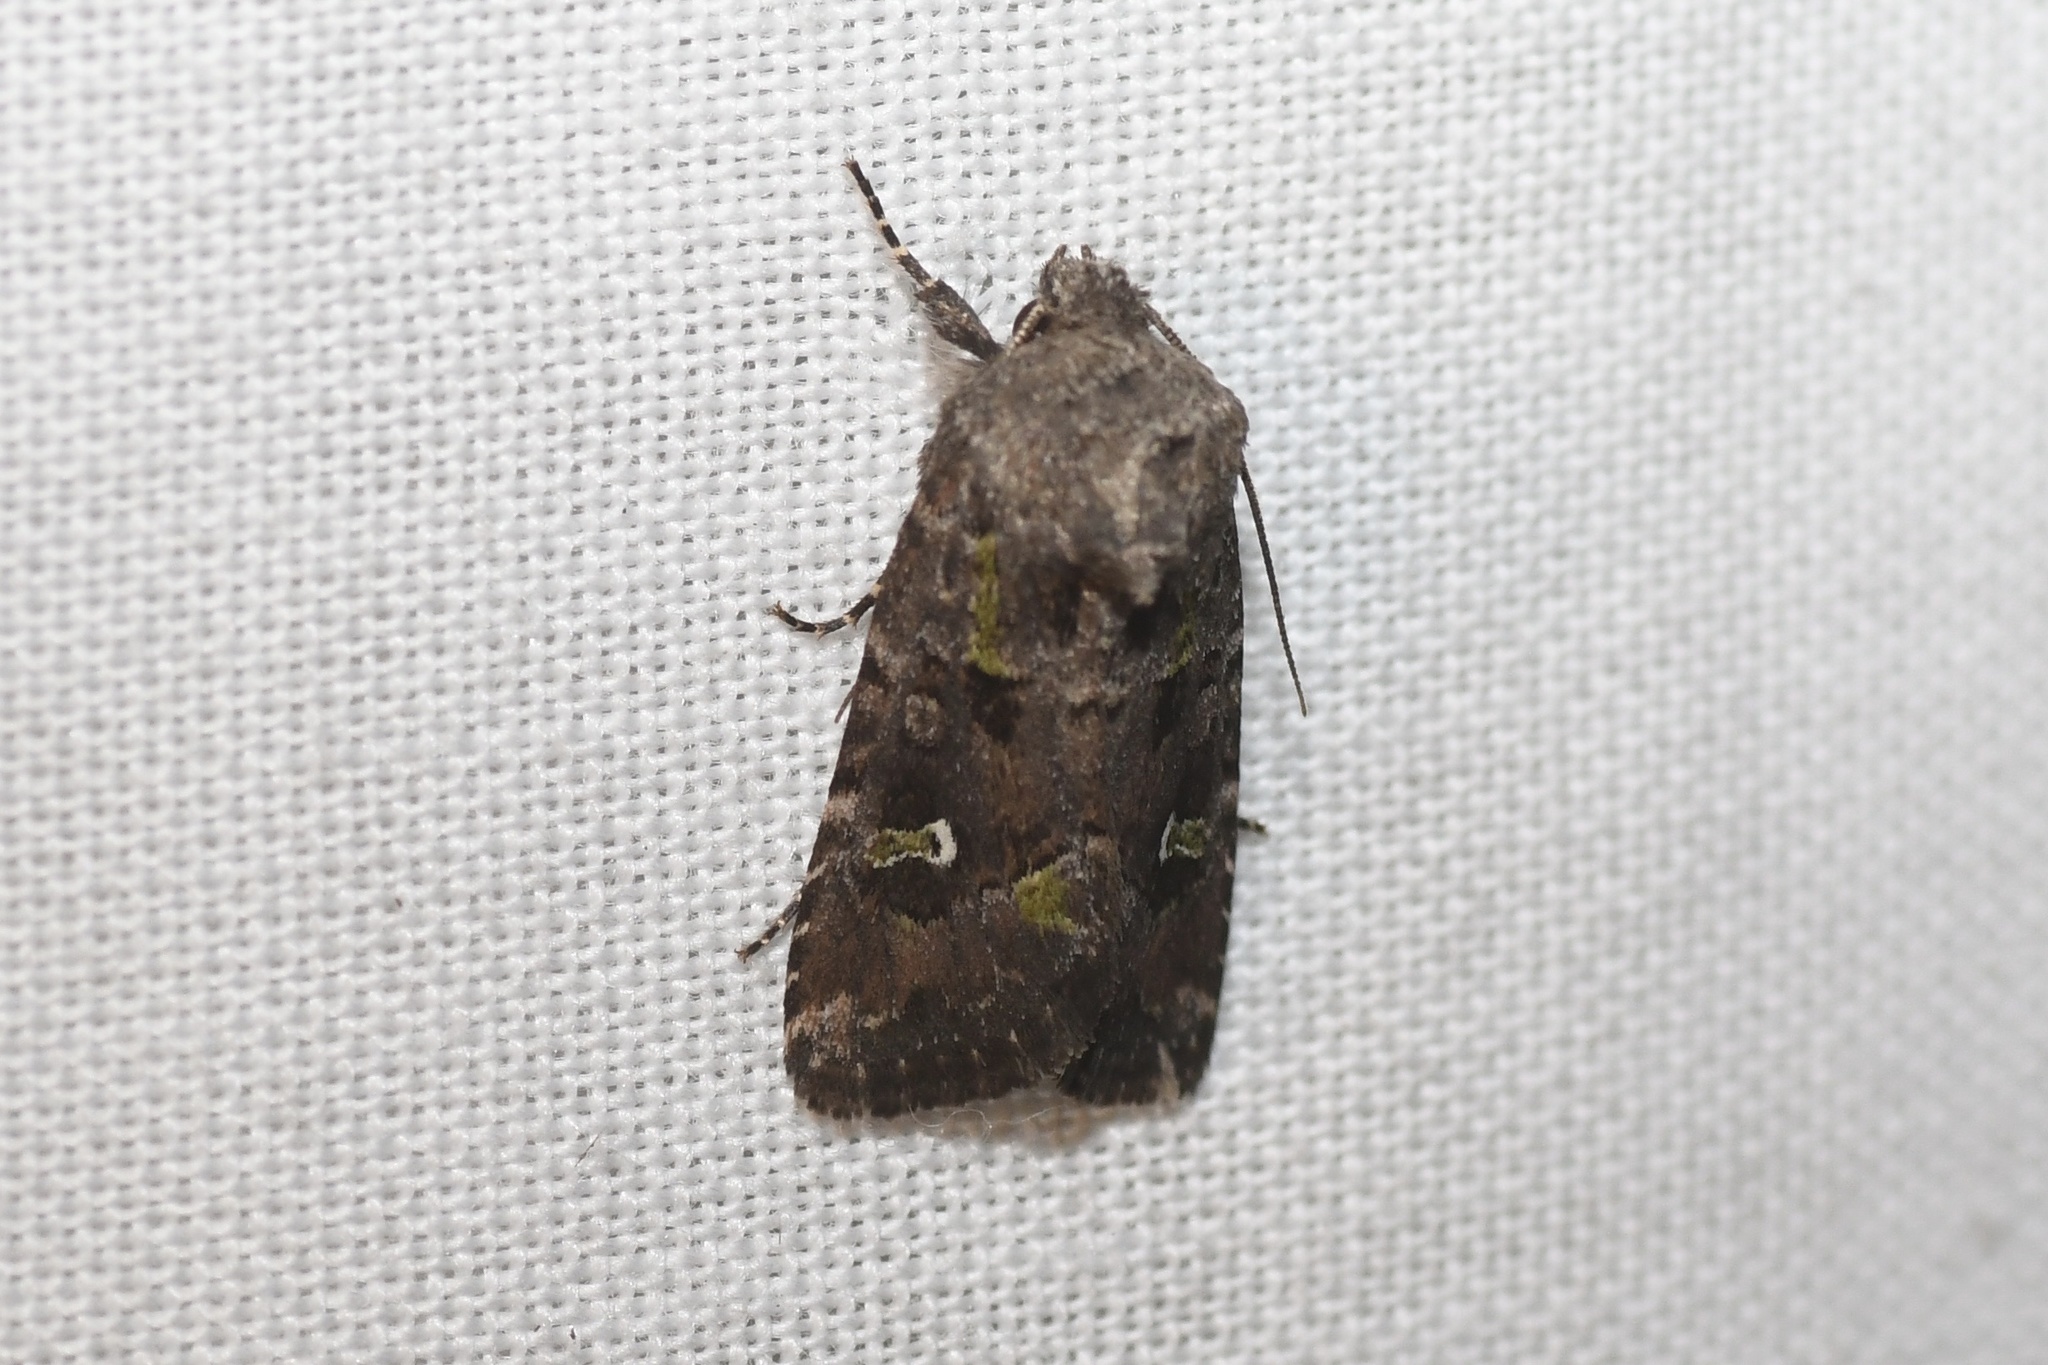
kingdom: Animalia
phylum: Arthropoda
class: Insecta
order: Lepidoptera
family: Noctuidae
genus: Lacinipolia
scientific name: Lacinipolia renigera
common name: Kidney-spotted minor
